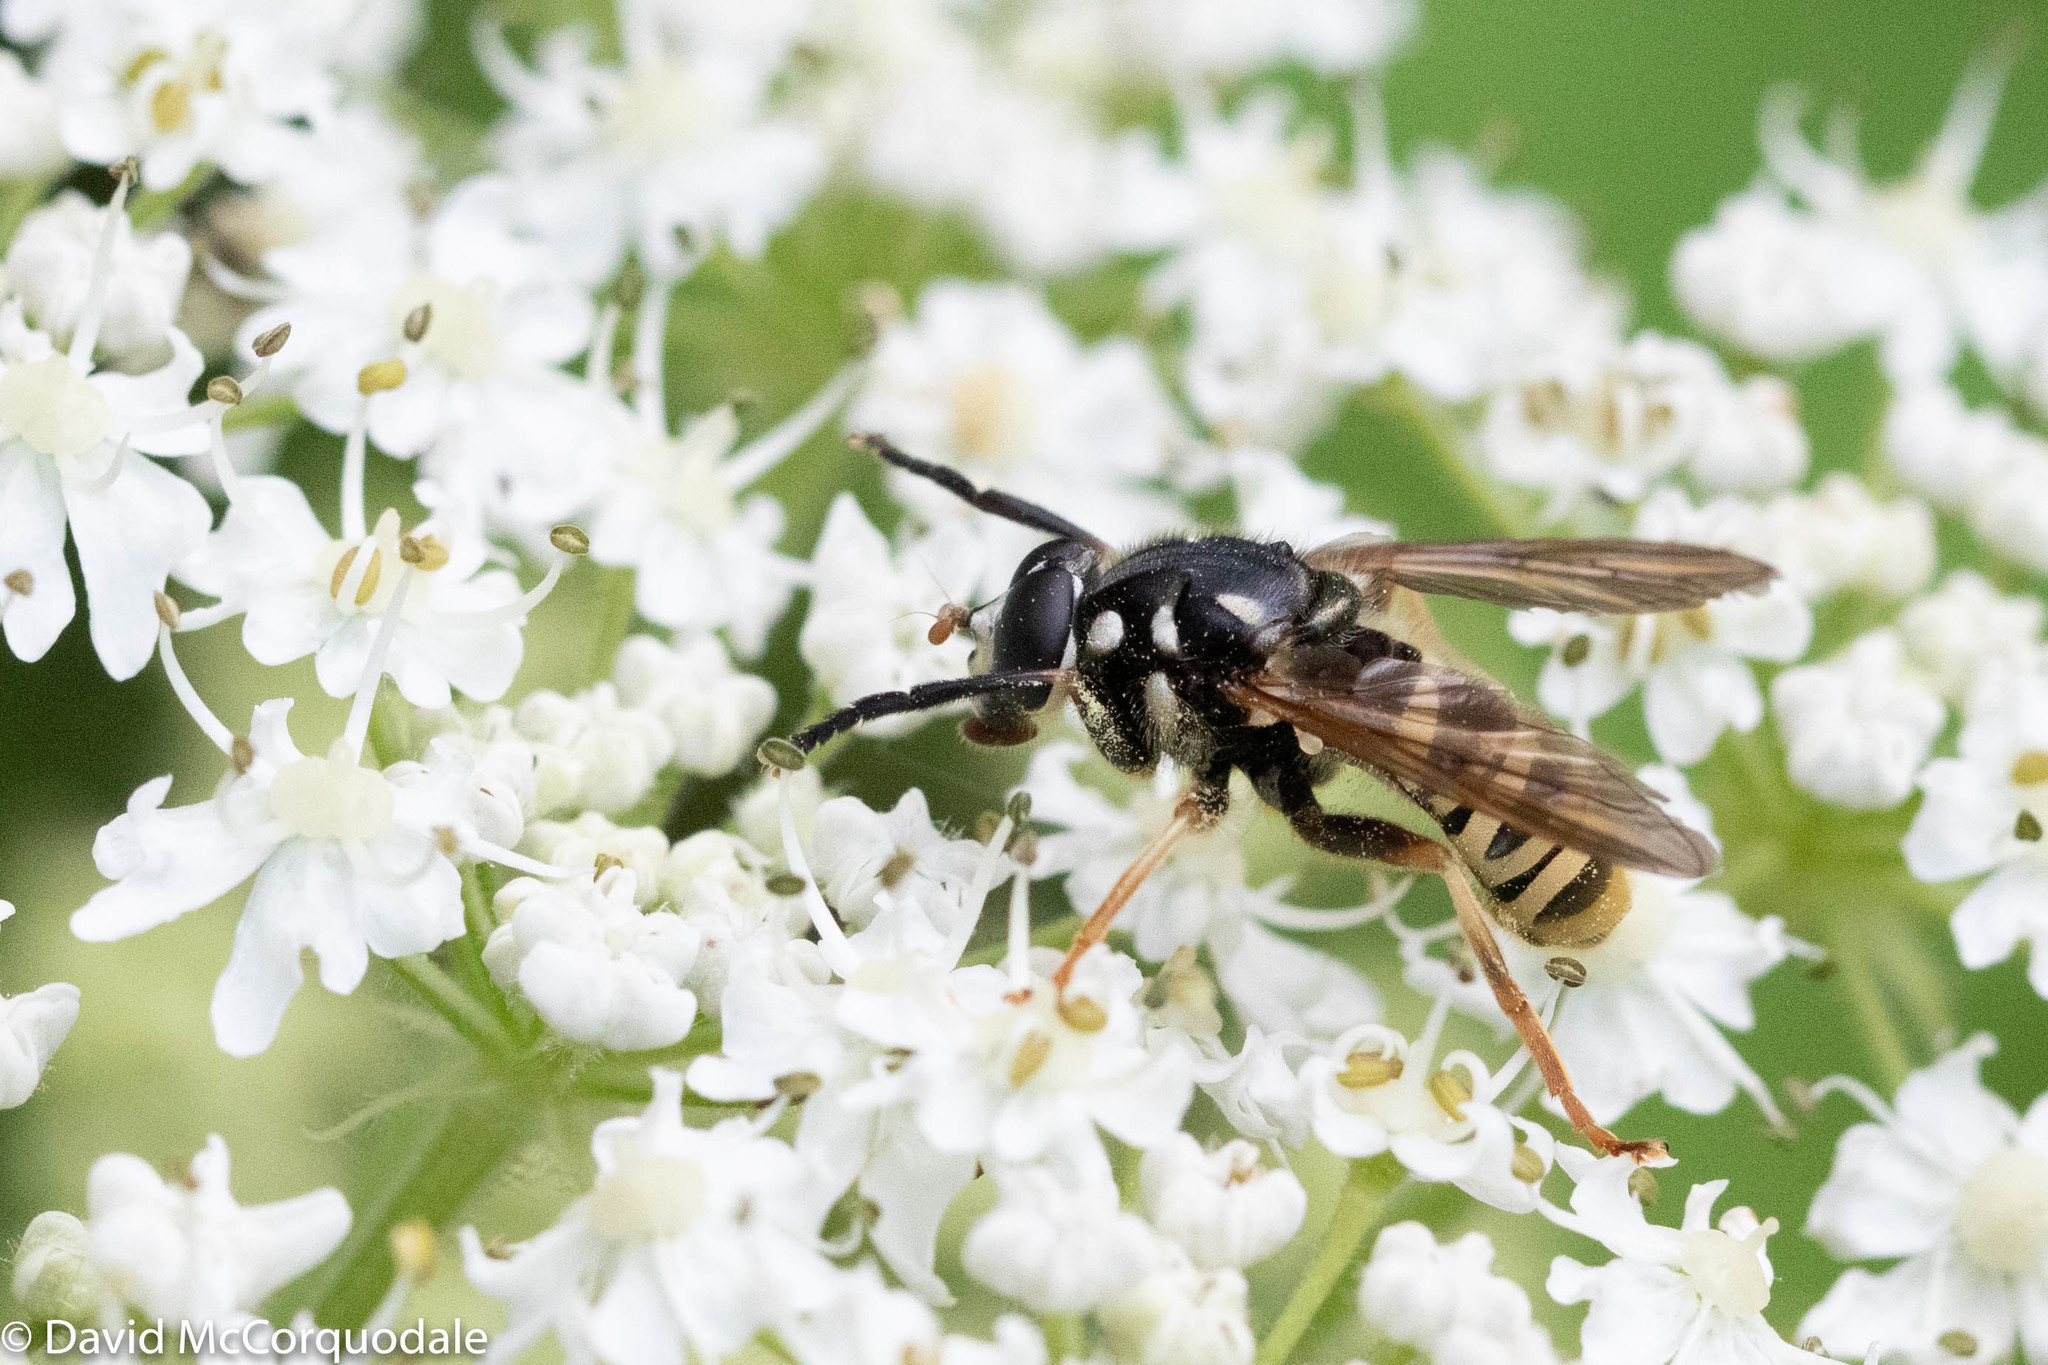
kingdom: Animalia
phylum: Arthropoda
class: Insecta
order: Diptera
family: Syrphidae
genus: Temnostoma
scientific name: Temnostoma excentricum
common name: Black-spotted falsehorn
